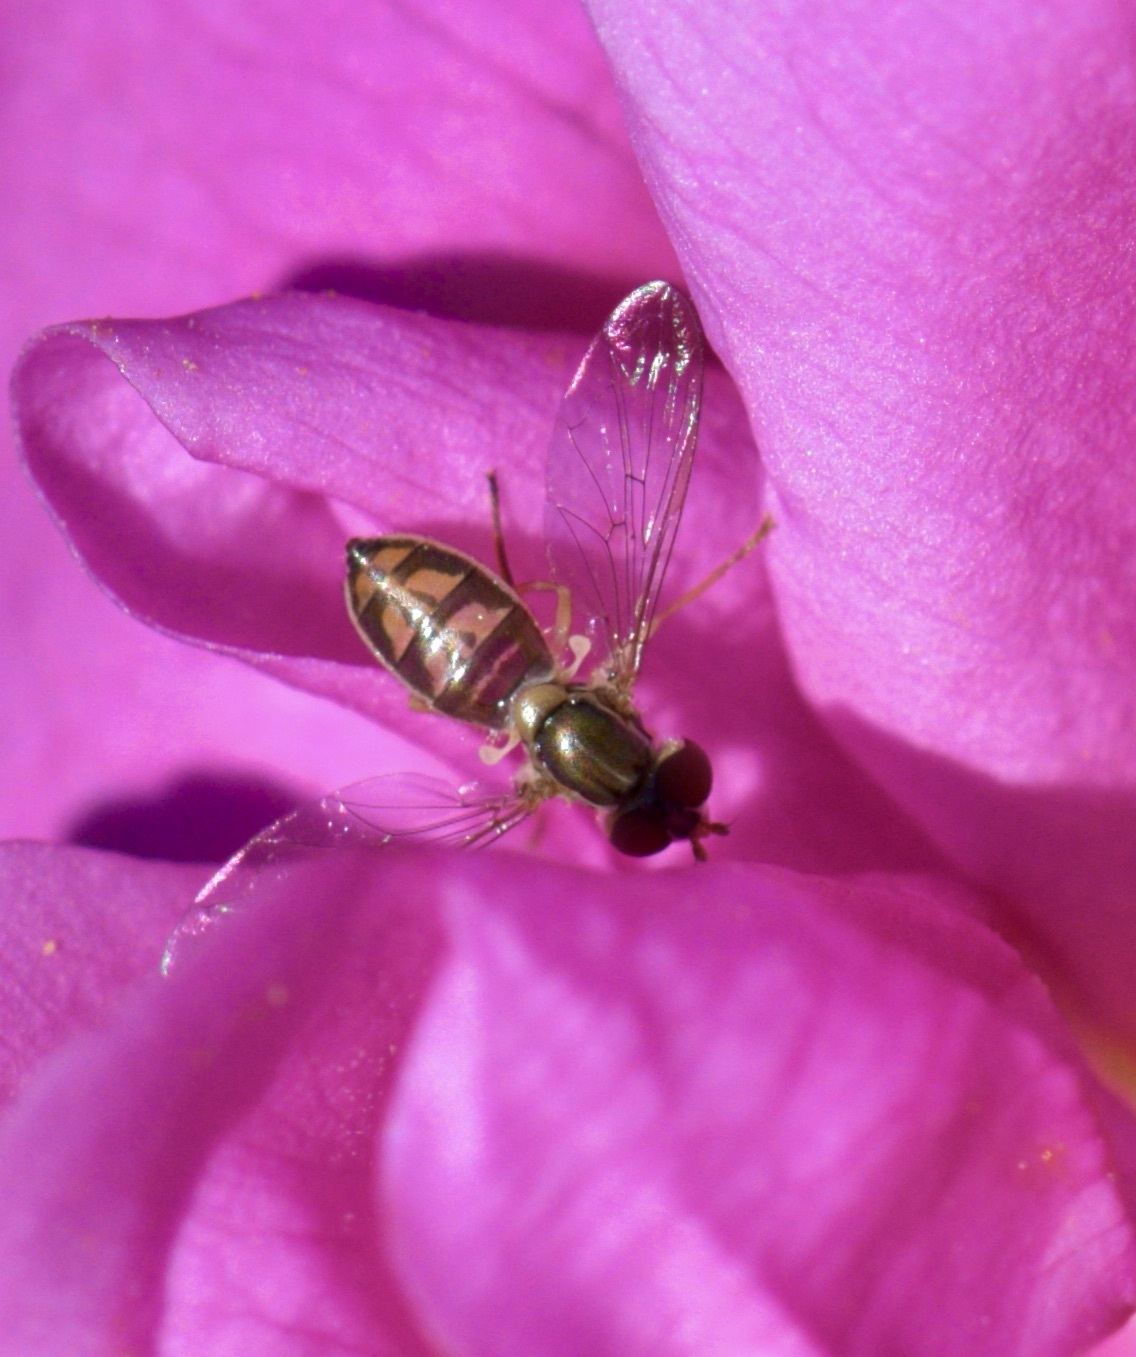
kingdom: Animalia
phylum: Arthropoda
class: Insecta
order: Diptera
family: Syrphidae
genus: Toxomerus
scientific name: Toxomerus marginatus
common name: Syrphid fly
